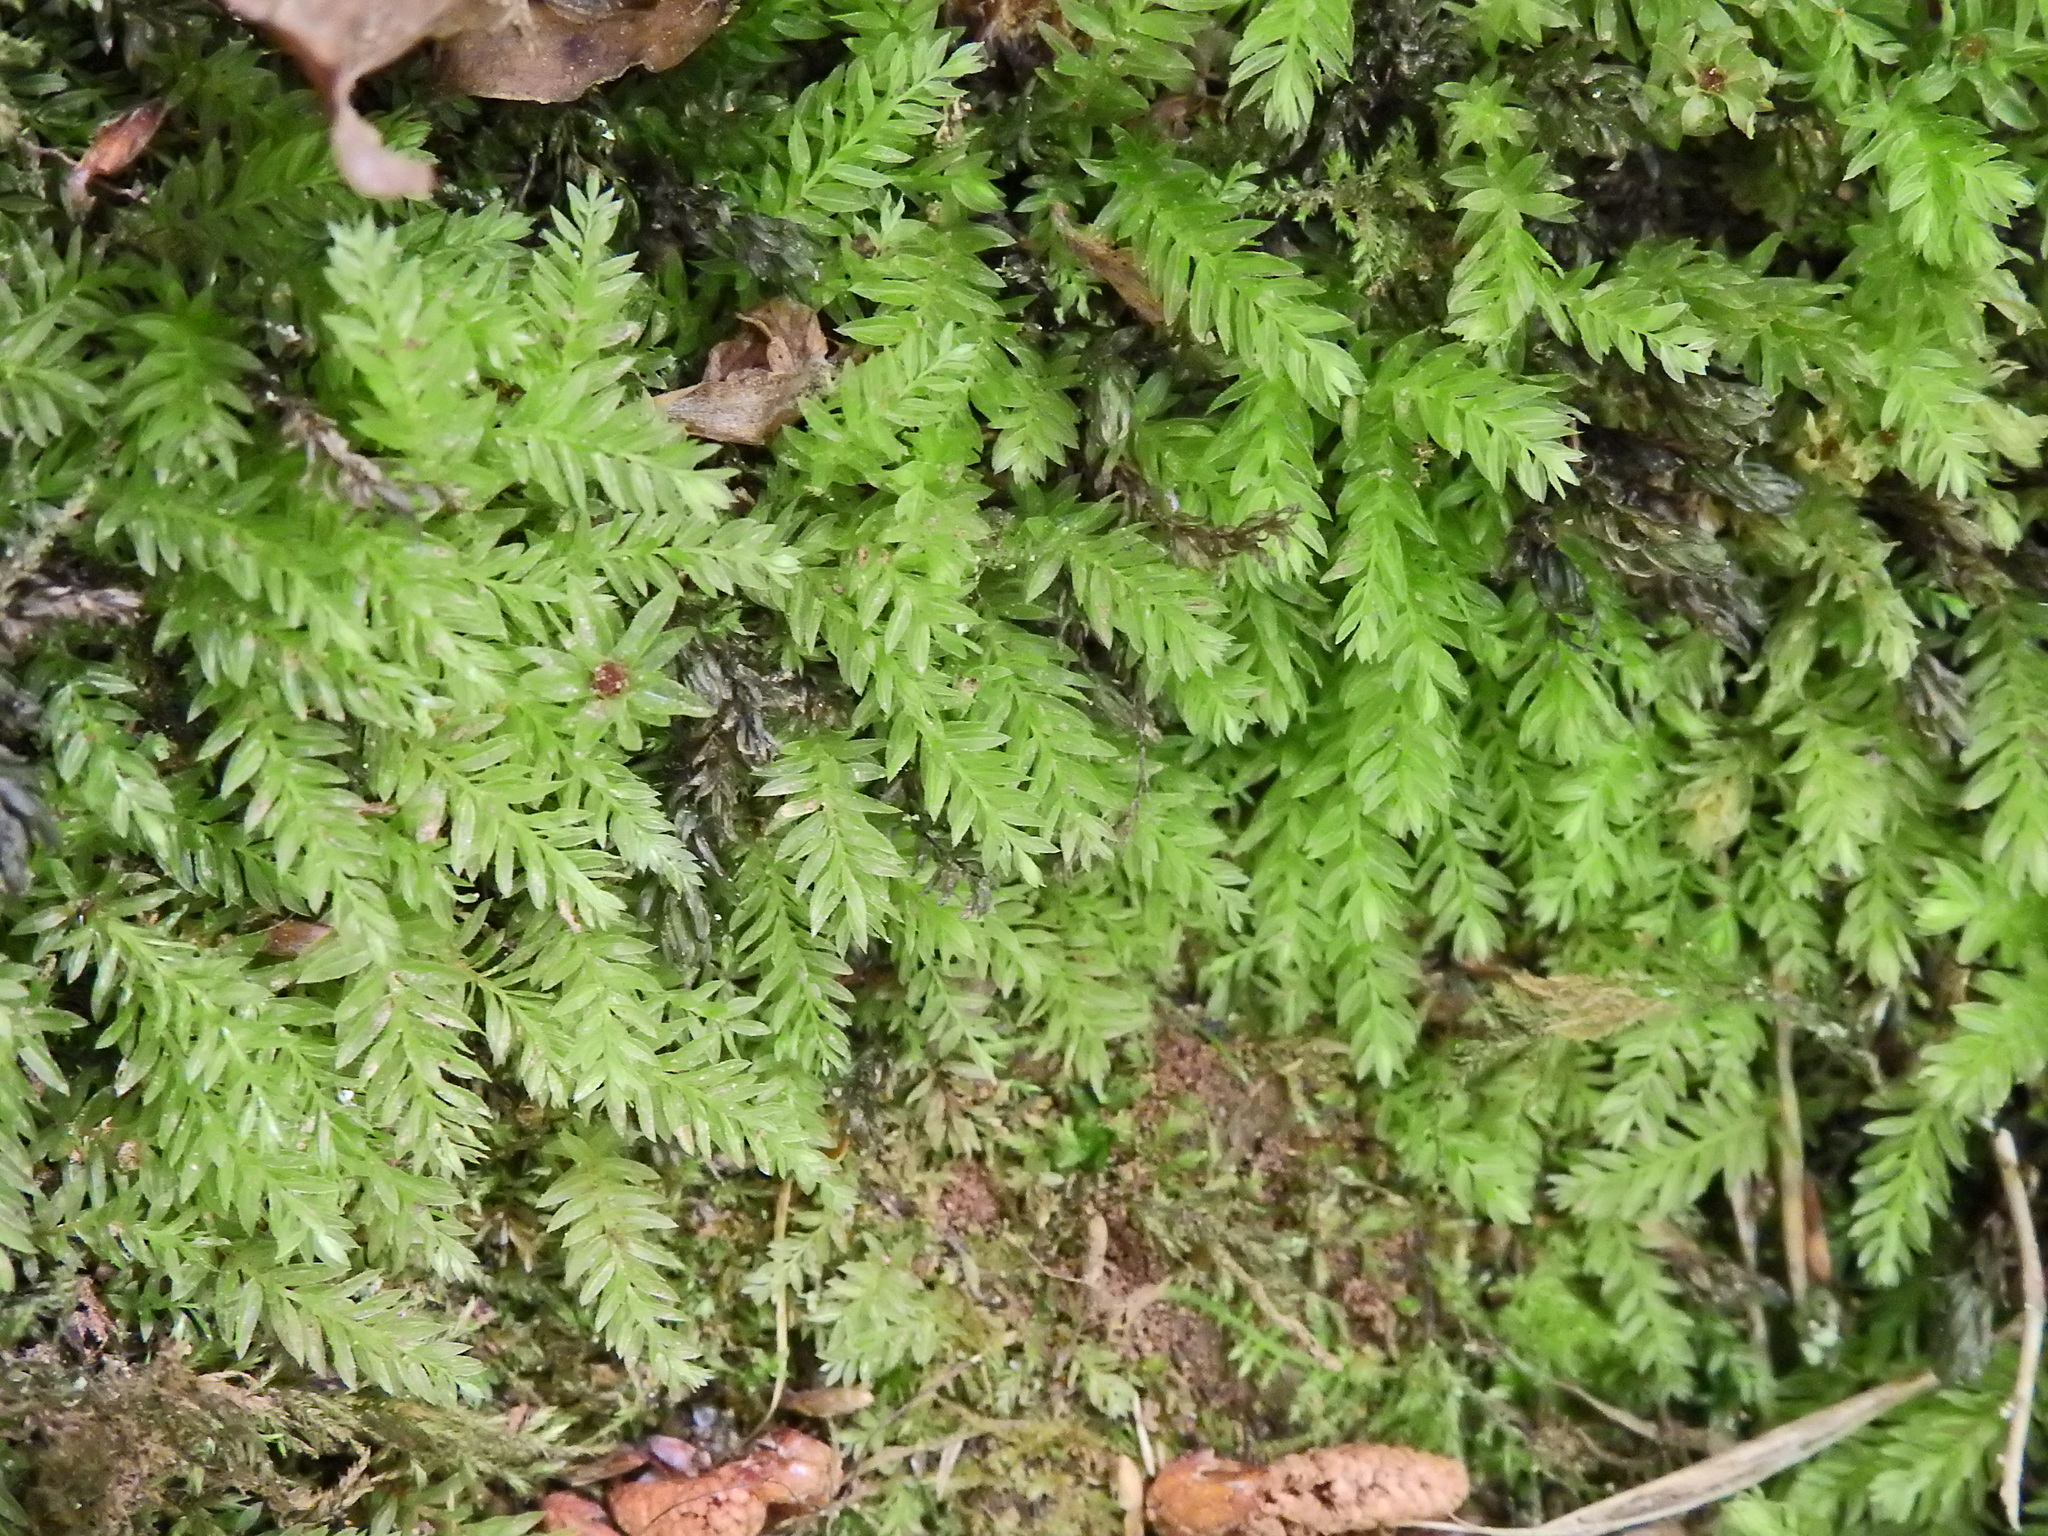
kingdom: Plantae
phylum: Bryophyta
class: Bryopsida
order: Bryales
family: Mniaceae
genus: Mnium
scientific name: Mnium hornum
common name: Swan's-neck leafy moss
